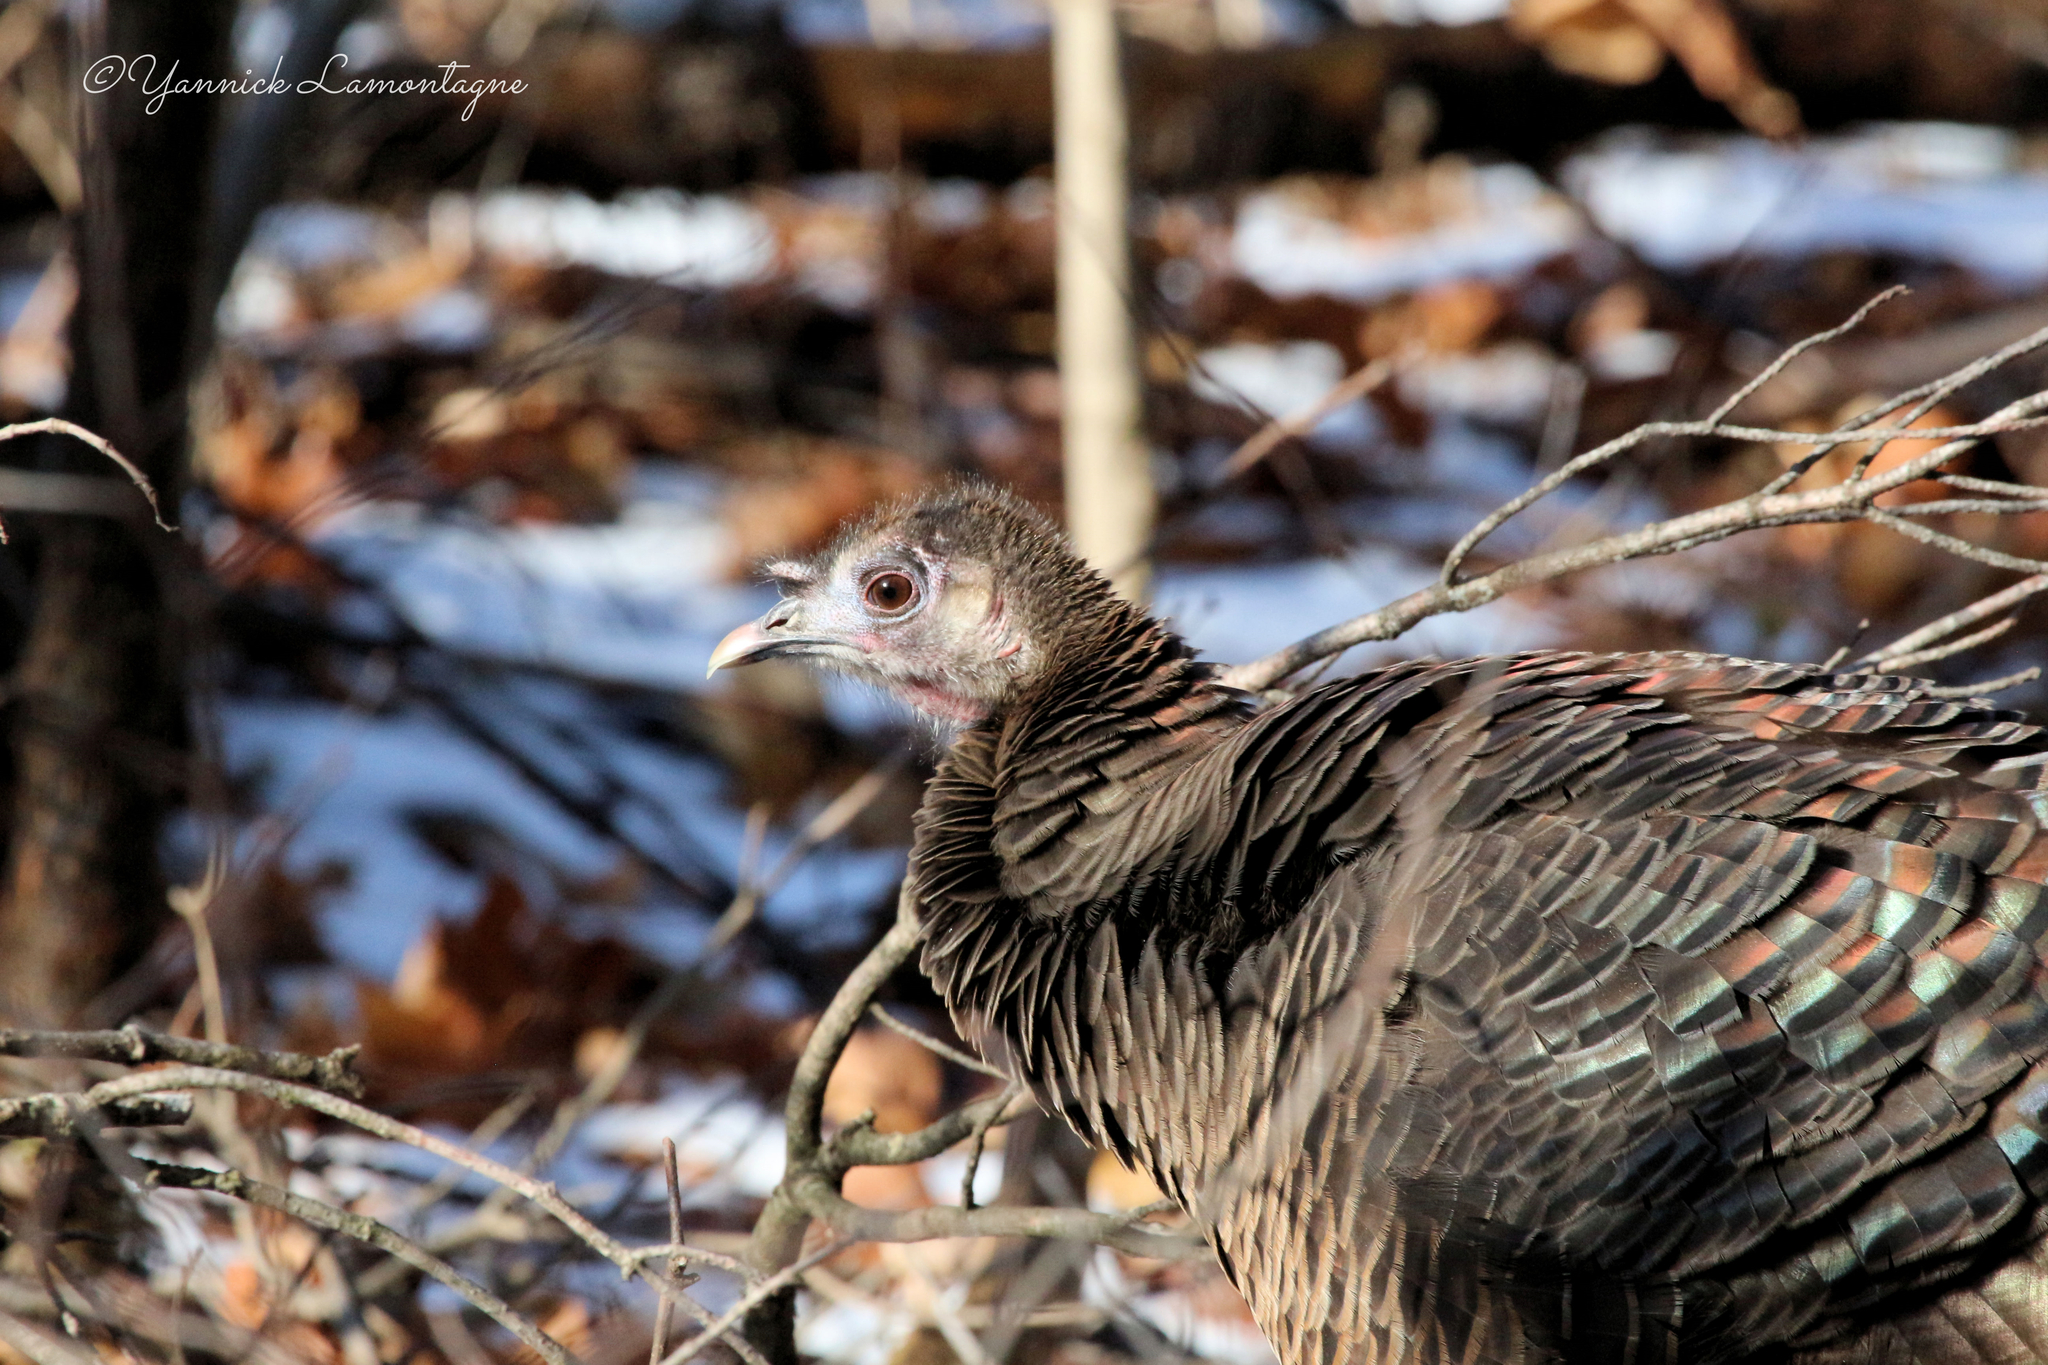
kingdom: Animalia
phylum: Chordata
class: Aves
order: Galliformes
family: Phasianidae
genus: Meleagris
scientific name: Meleagris gallopavo
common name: Wild turkey
